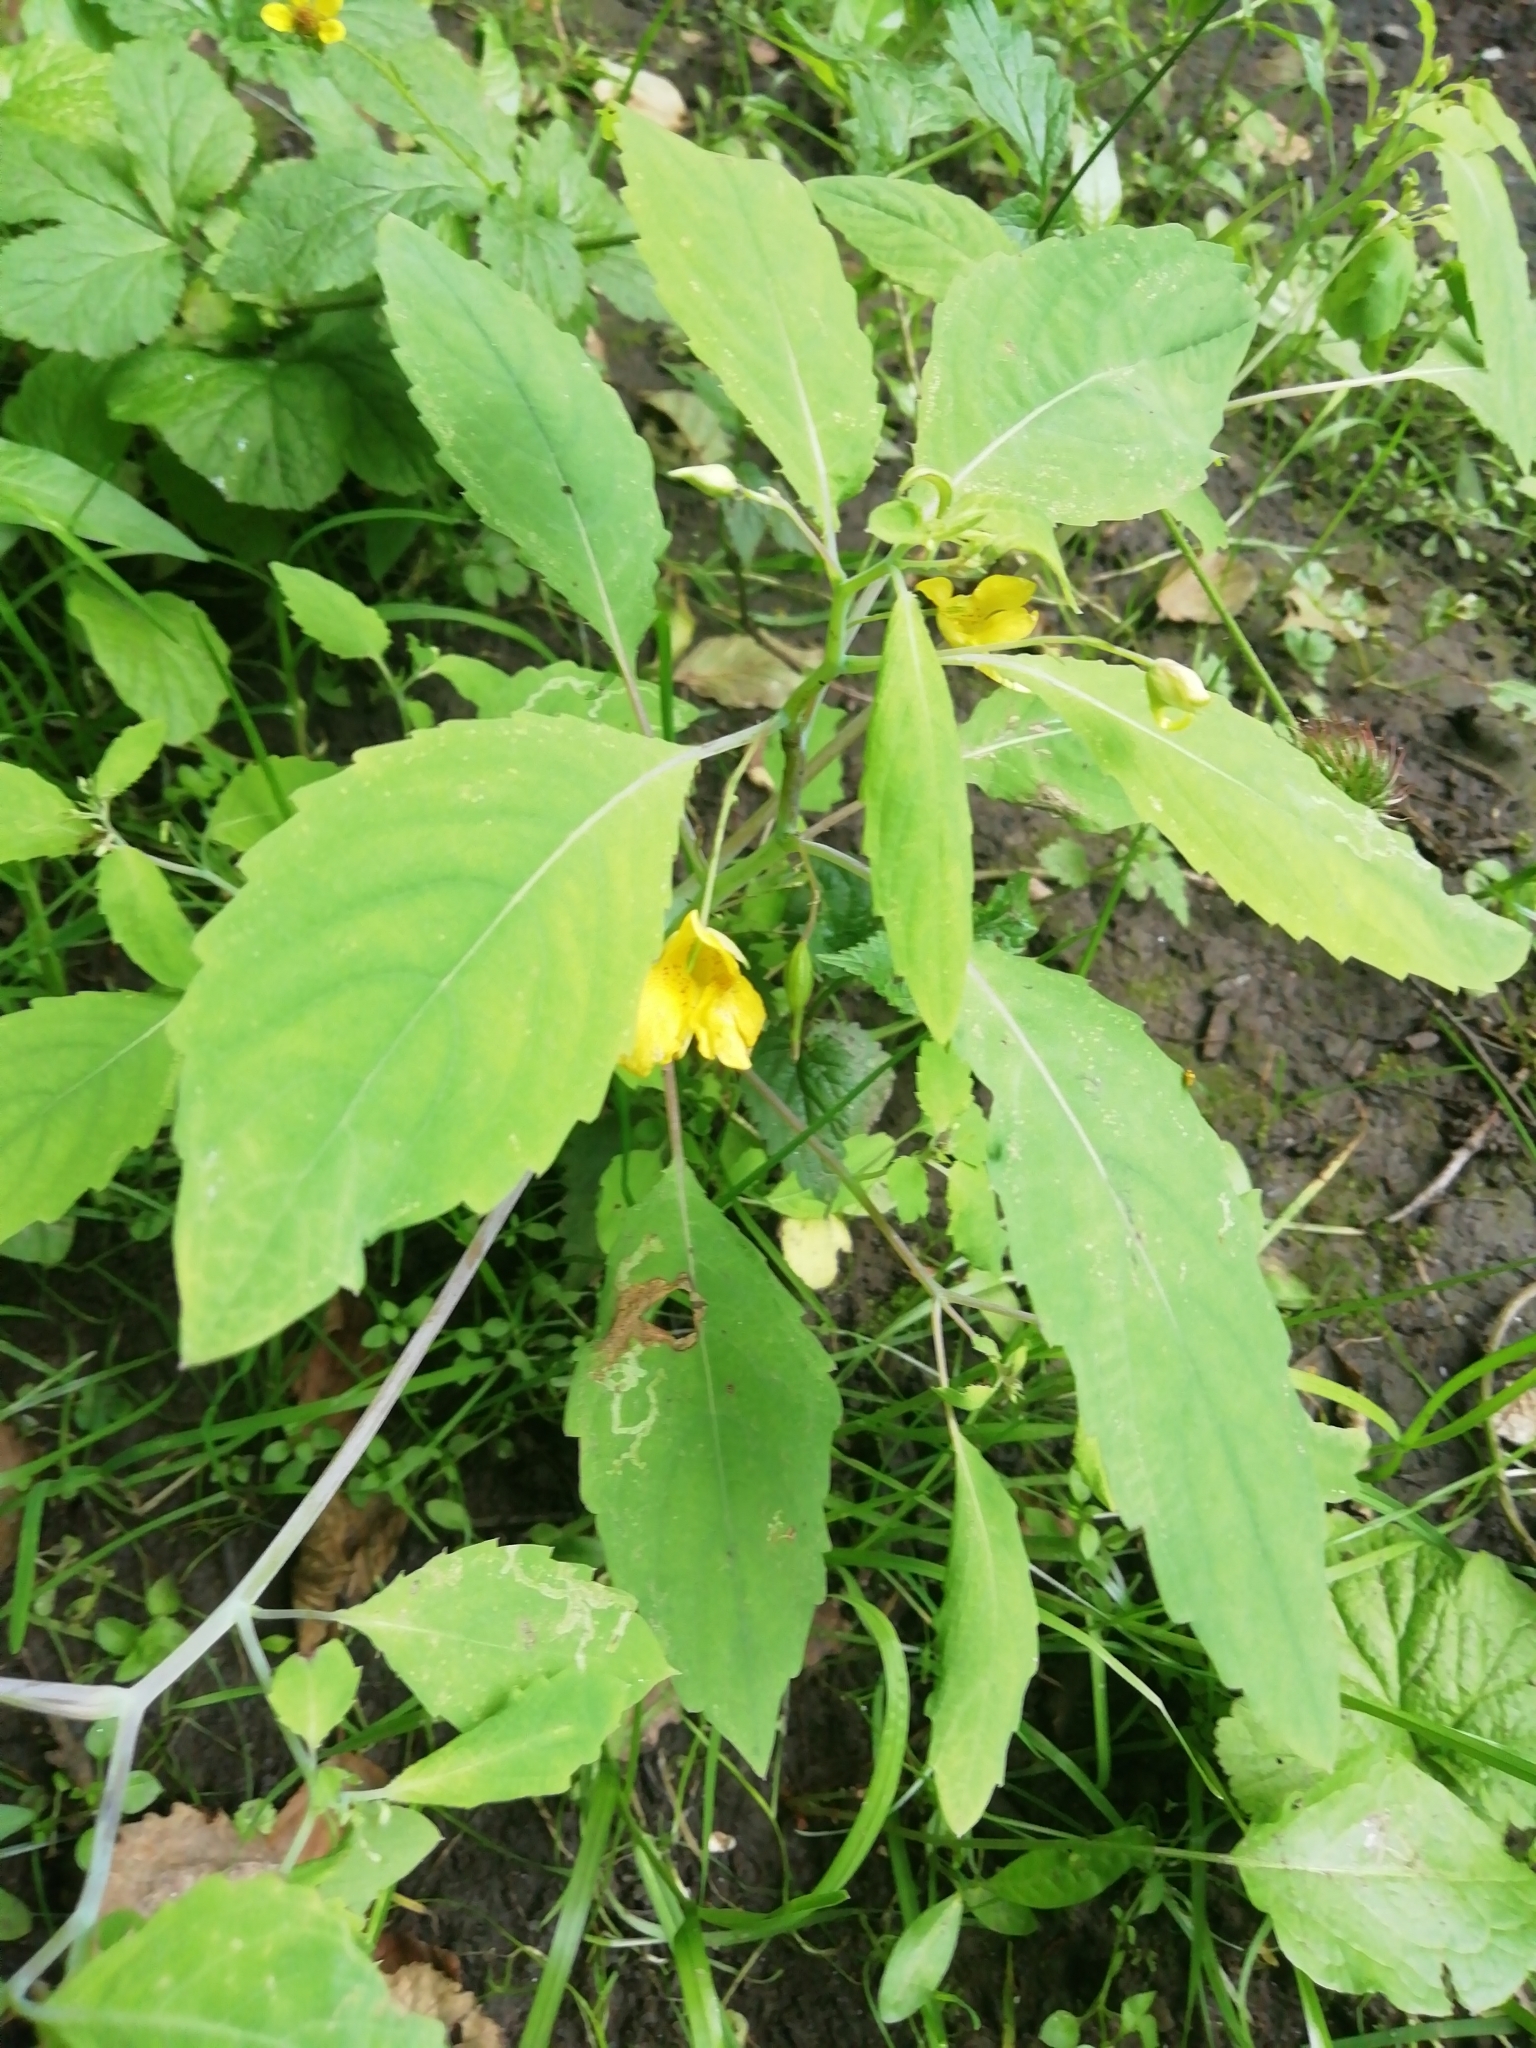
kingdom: Plantae
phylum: Tracheophyta
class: Magnoliopsida
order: Ericales
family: Balsaminaceae
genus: Impatiens
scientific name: Impatiens noli-tangere
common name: Touch-me-not balsam
